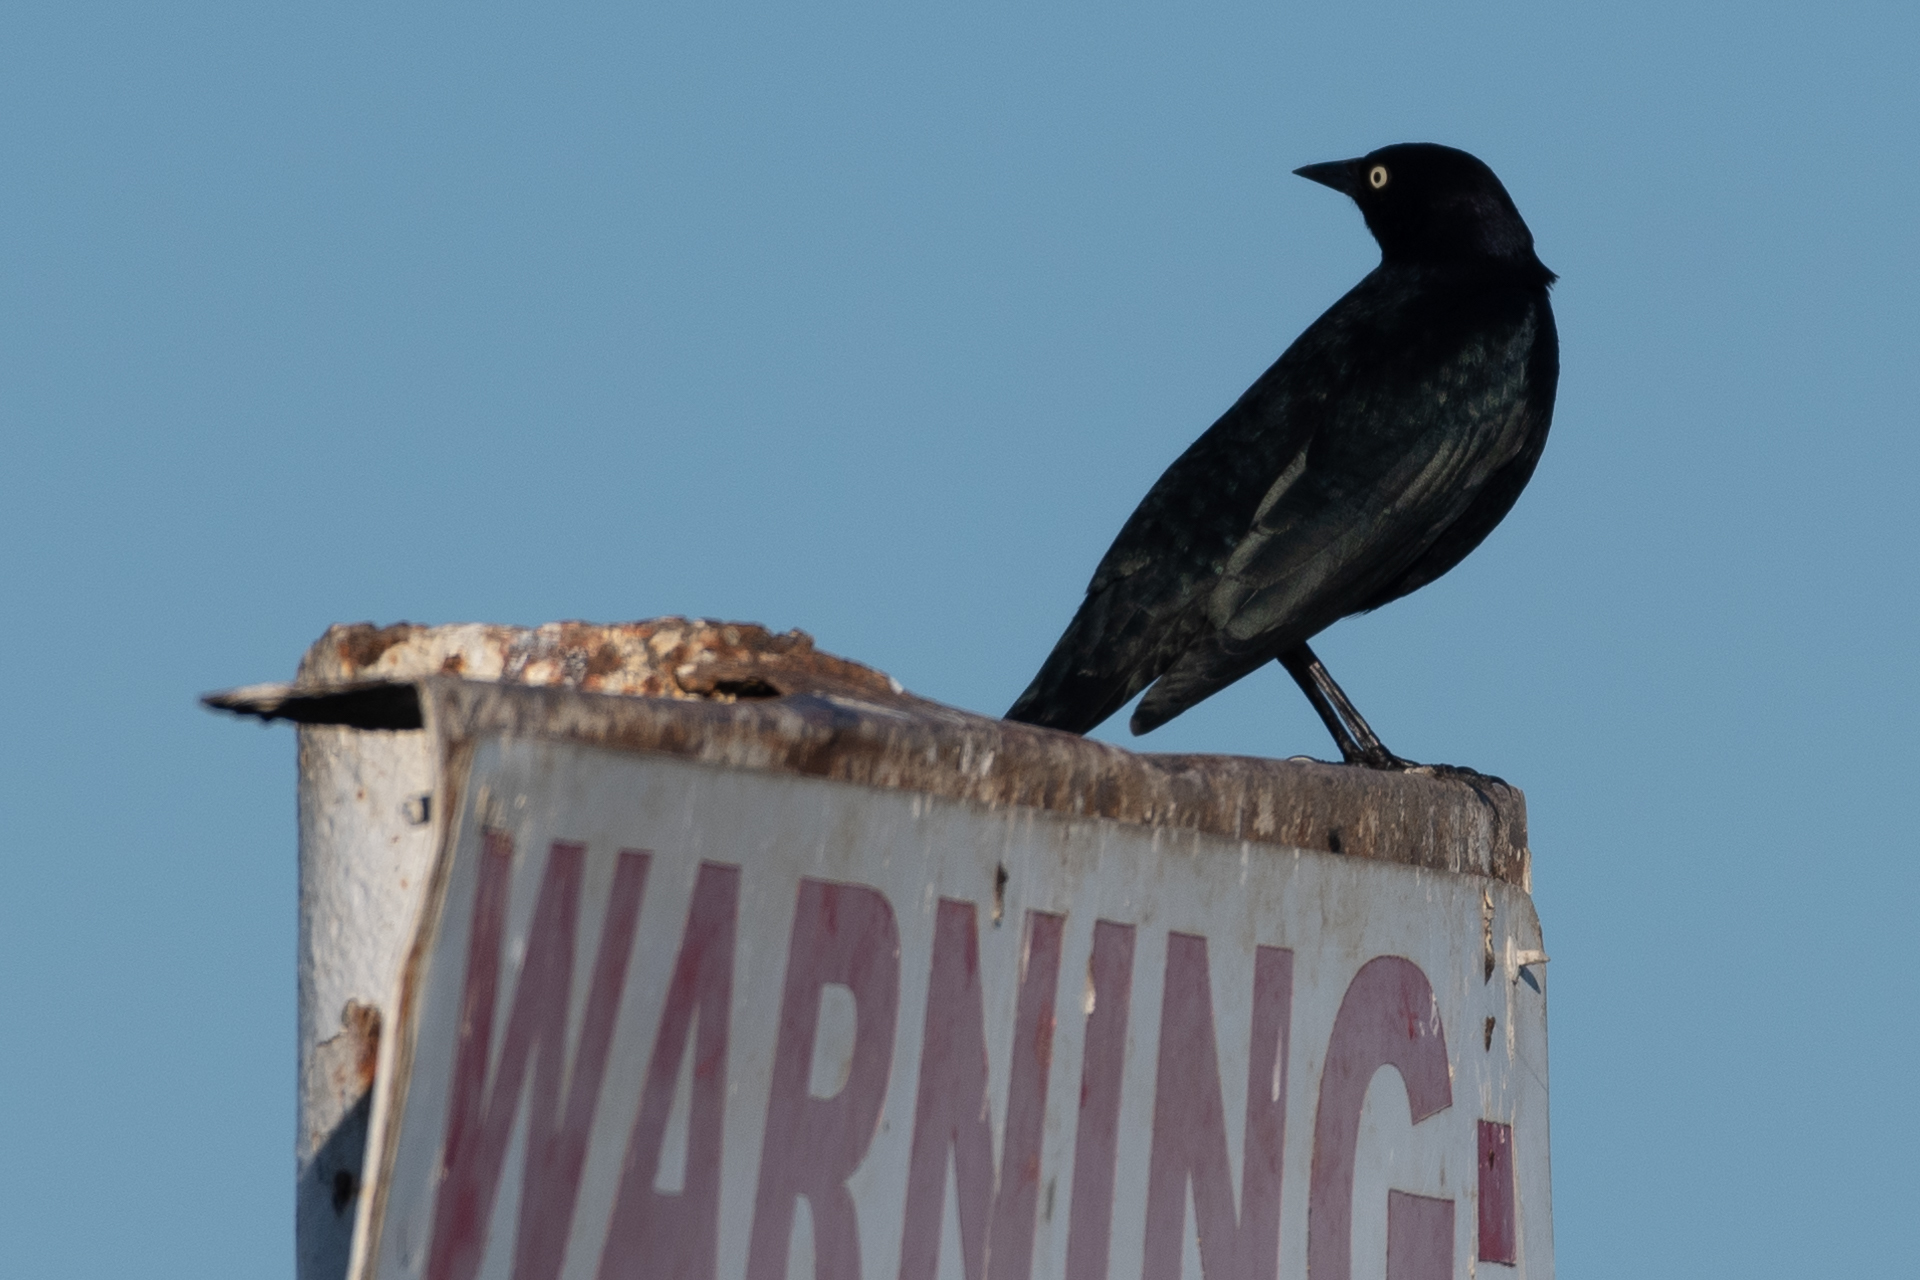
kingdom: Animalia
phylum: Chordata
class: Aves
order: Passeriformes
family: Icteridae
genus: Euphagus
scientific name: Euphagus cyanocephalus
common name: Brewer's blackbird
